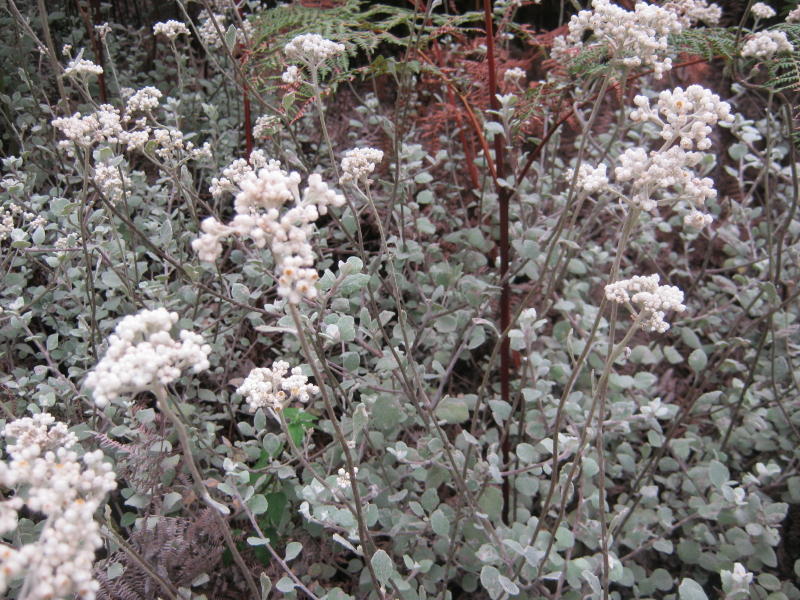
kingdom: Plantae
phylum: Tracheophyta
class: Magnoliopsida
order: Asterales
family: Asteraceae
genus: Helichrysum
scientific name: Helichrysum petiolare
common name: Licorice-plant
